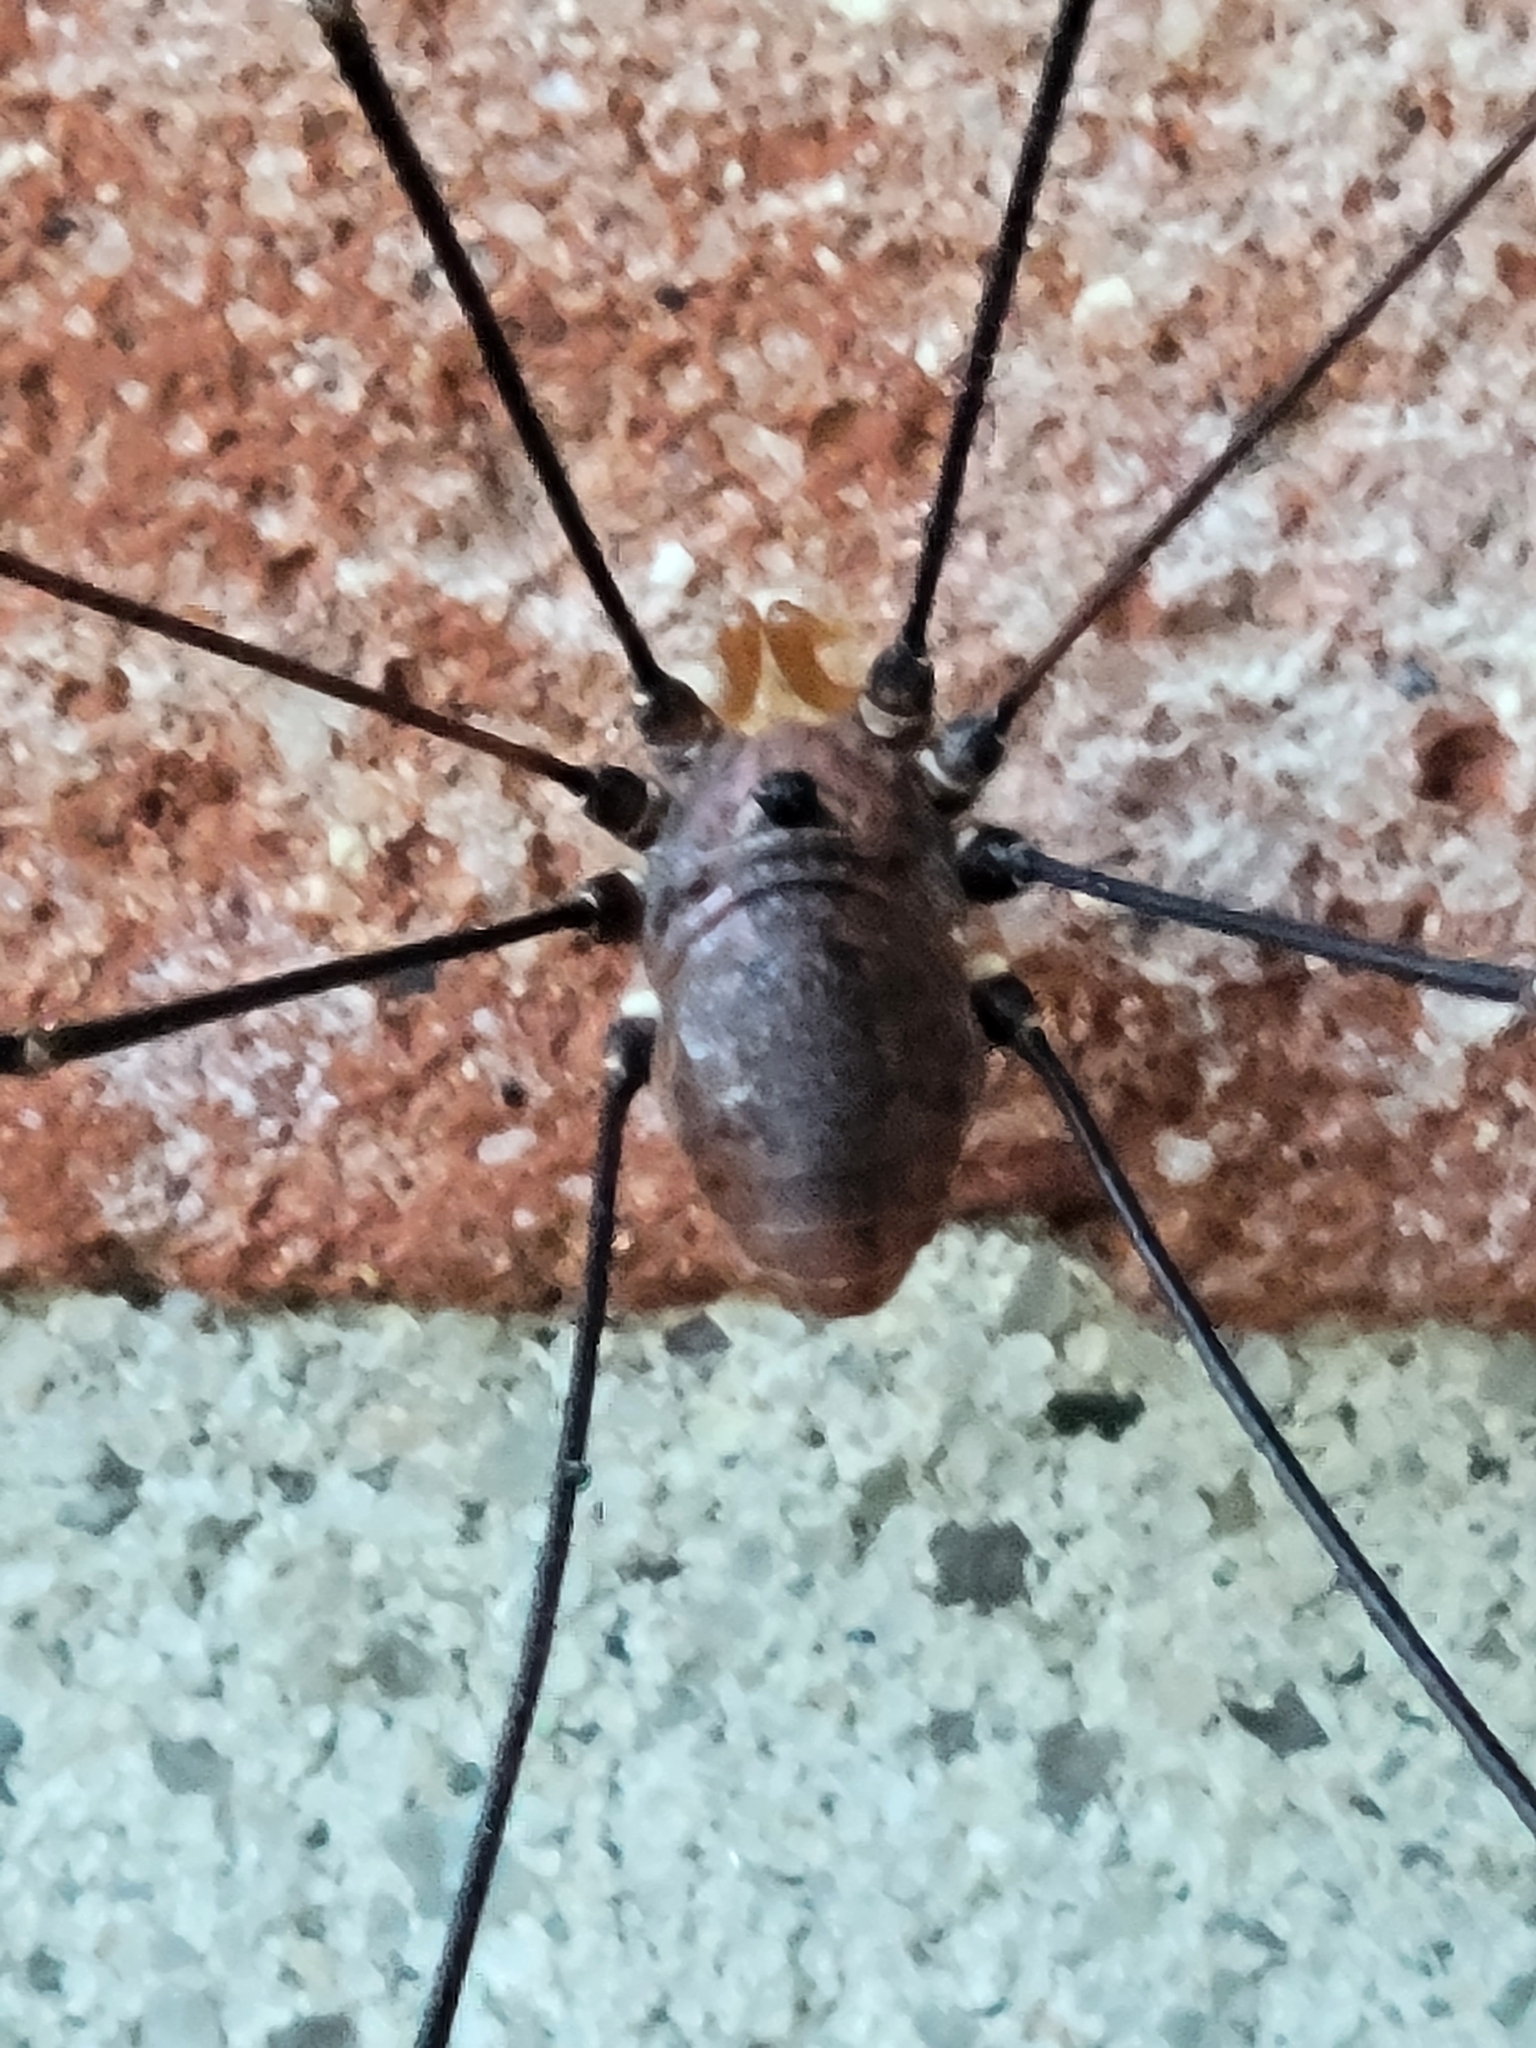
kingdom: Animalia
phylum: Arthropoda
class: Arachnida
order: Opiliones
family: Sclerosomatidae
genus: Leiobunum
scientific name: Leiobunum vittatum
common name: Eastern harvestman
